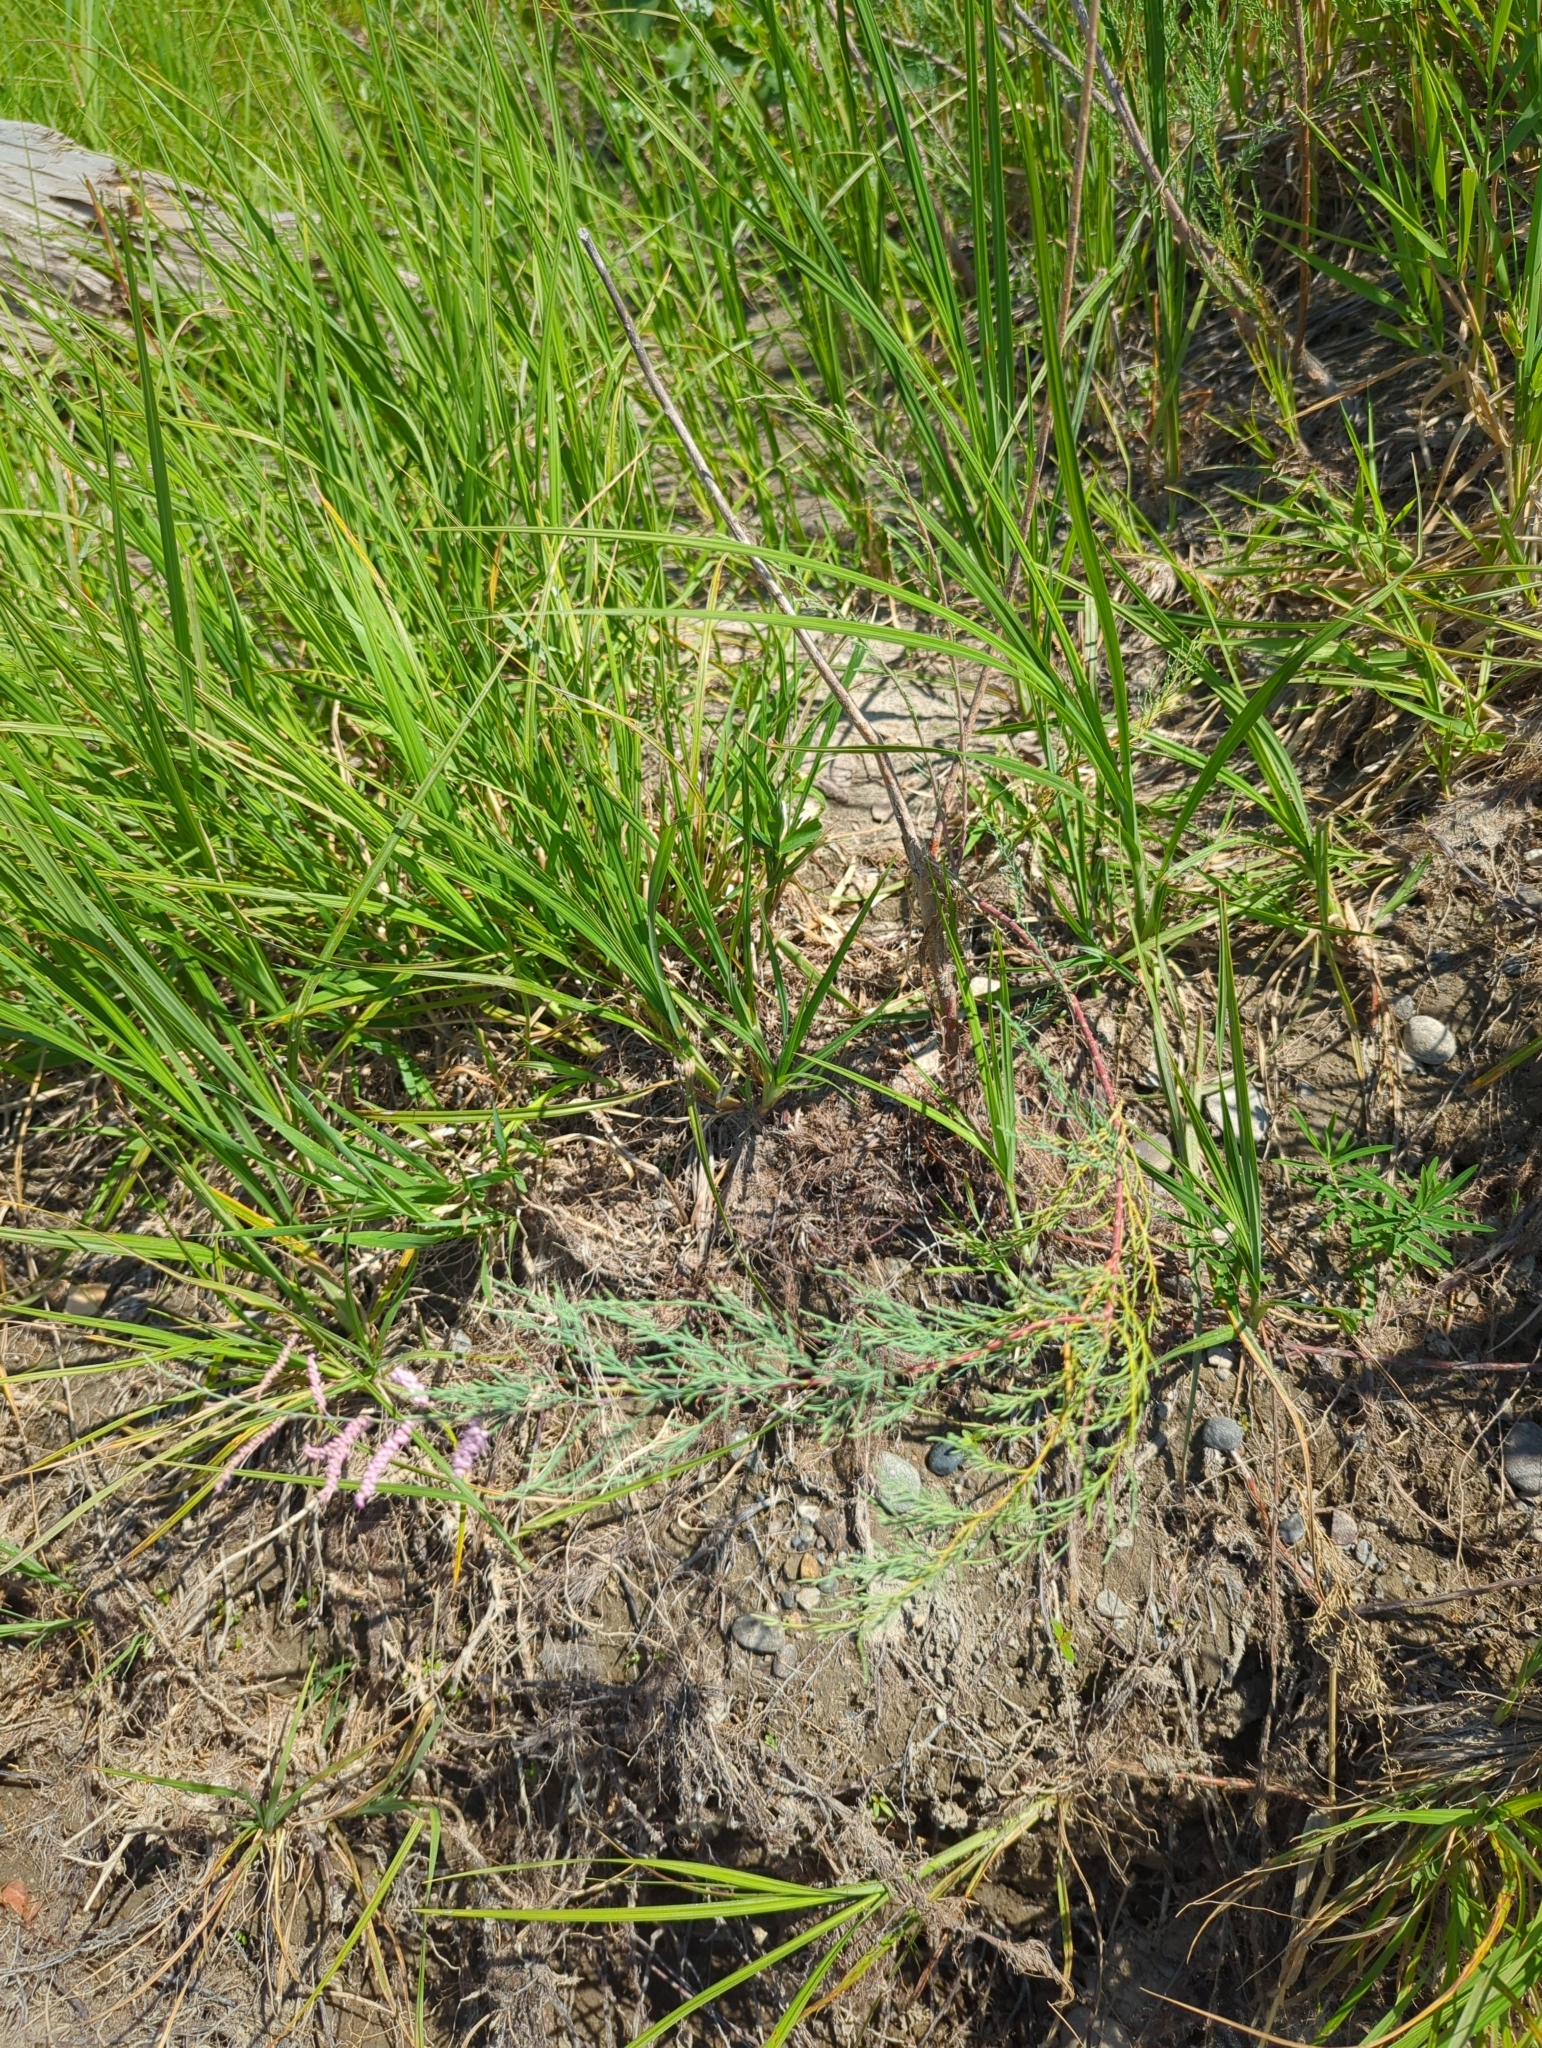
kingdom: Plantae
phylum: Tracheophyta
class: Magnoliopsida
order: Caryophyllales
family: Tamaricaceae
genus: Tamarix
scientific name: Tamarix ramosissima
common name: Pink tamarisk
